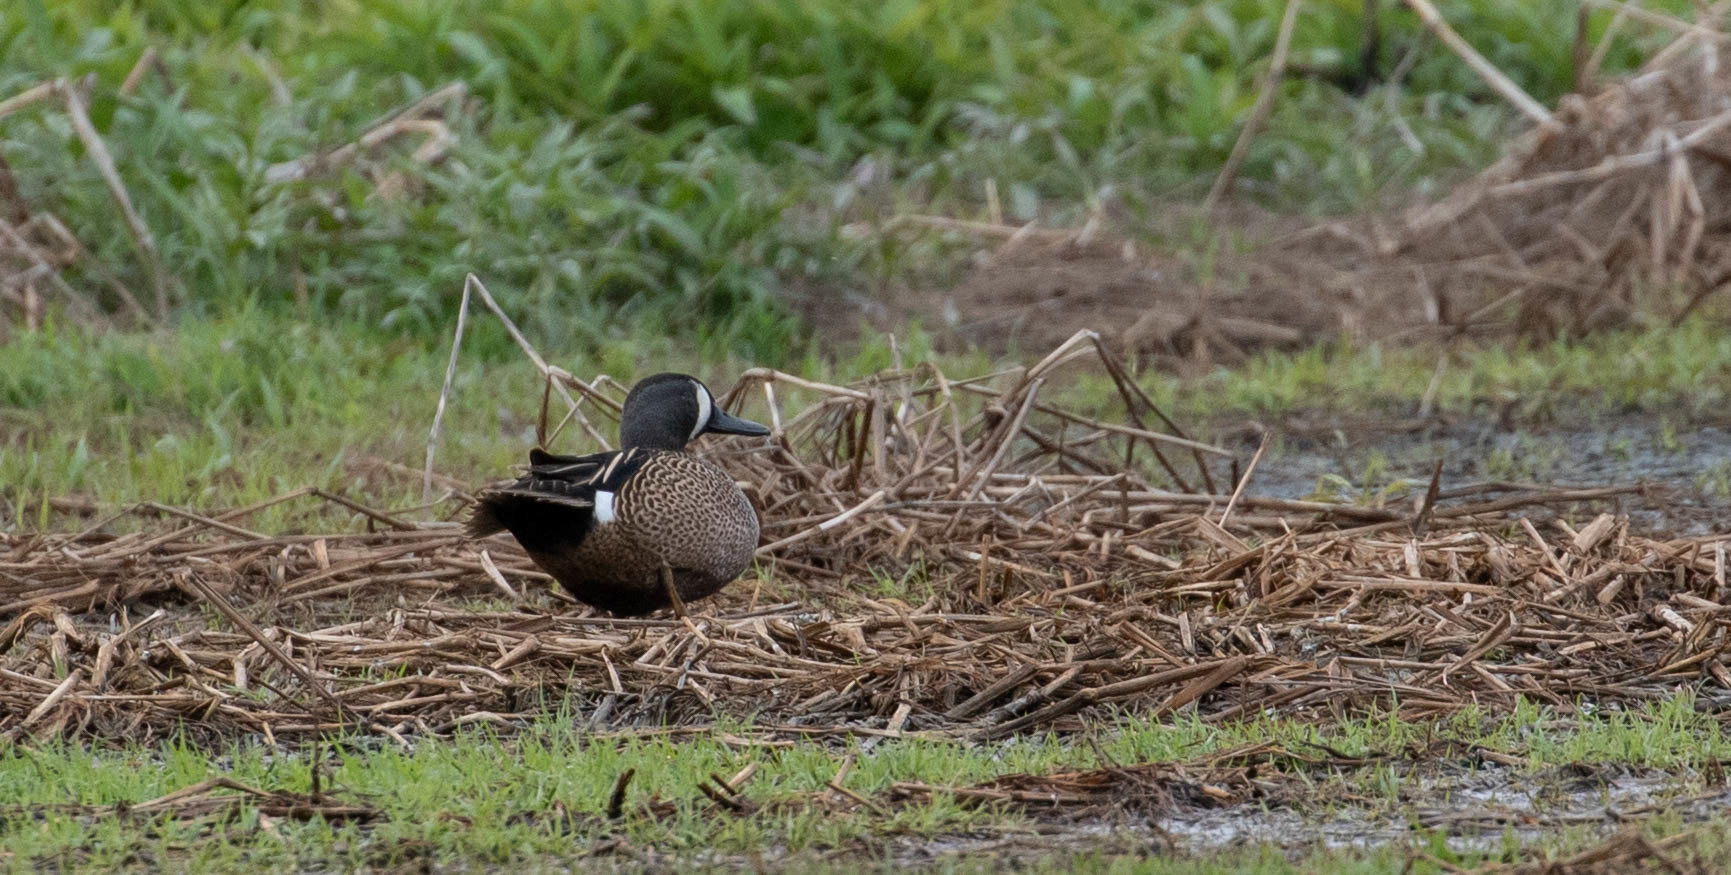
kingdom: Animalia
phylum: Chordata
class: Aves
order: Anseriformes
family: Anatidae
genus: Spatula
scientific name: Spatula discors
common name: Blue-winged teal
